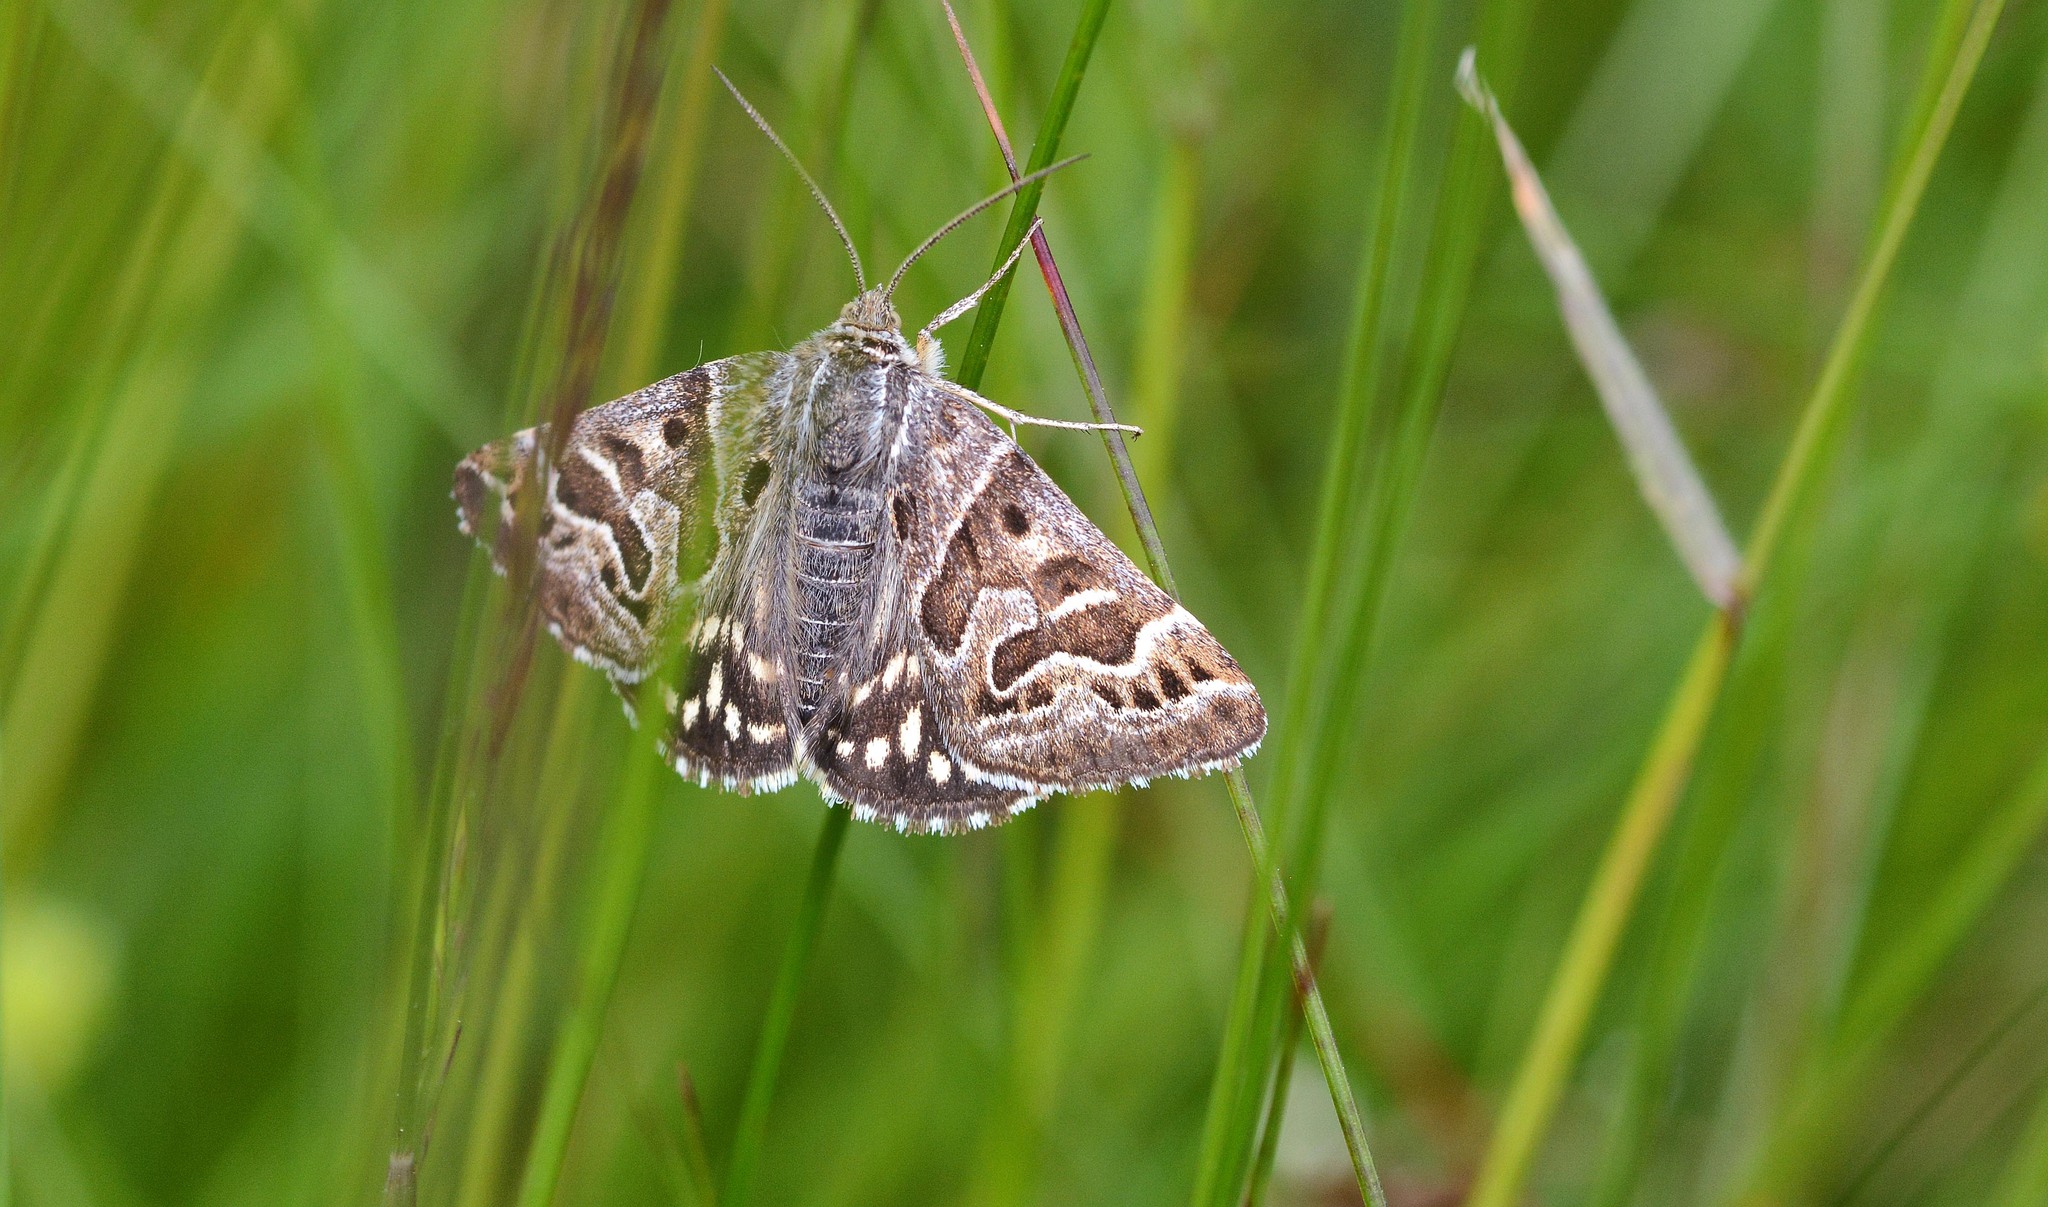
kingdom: Animalia
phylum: Arthropoda
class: Insecta
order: Lepidoptera
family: Erebidae
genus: Callistege
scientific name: Callistege mi
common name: Mother shipton
